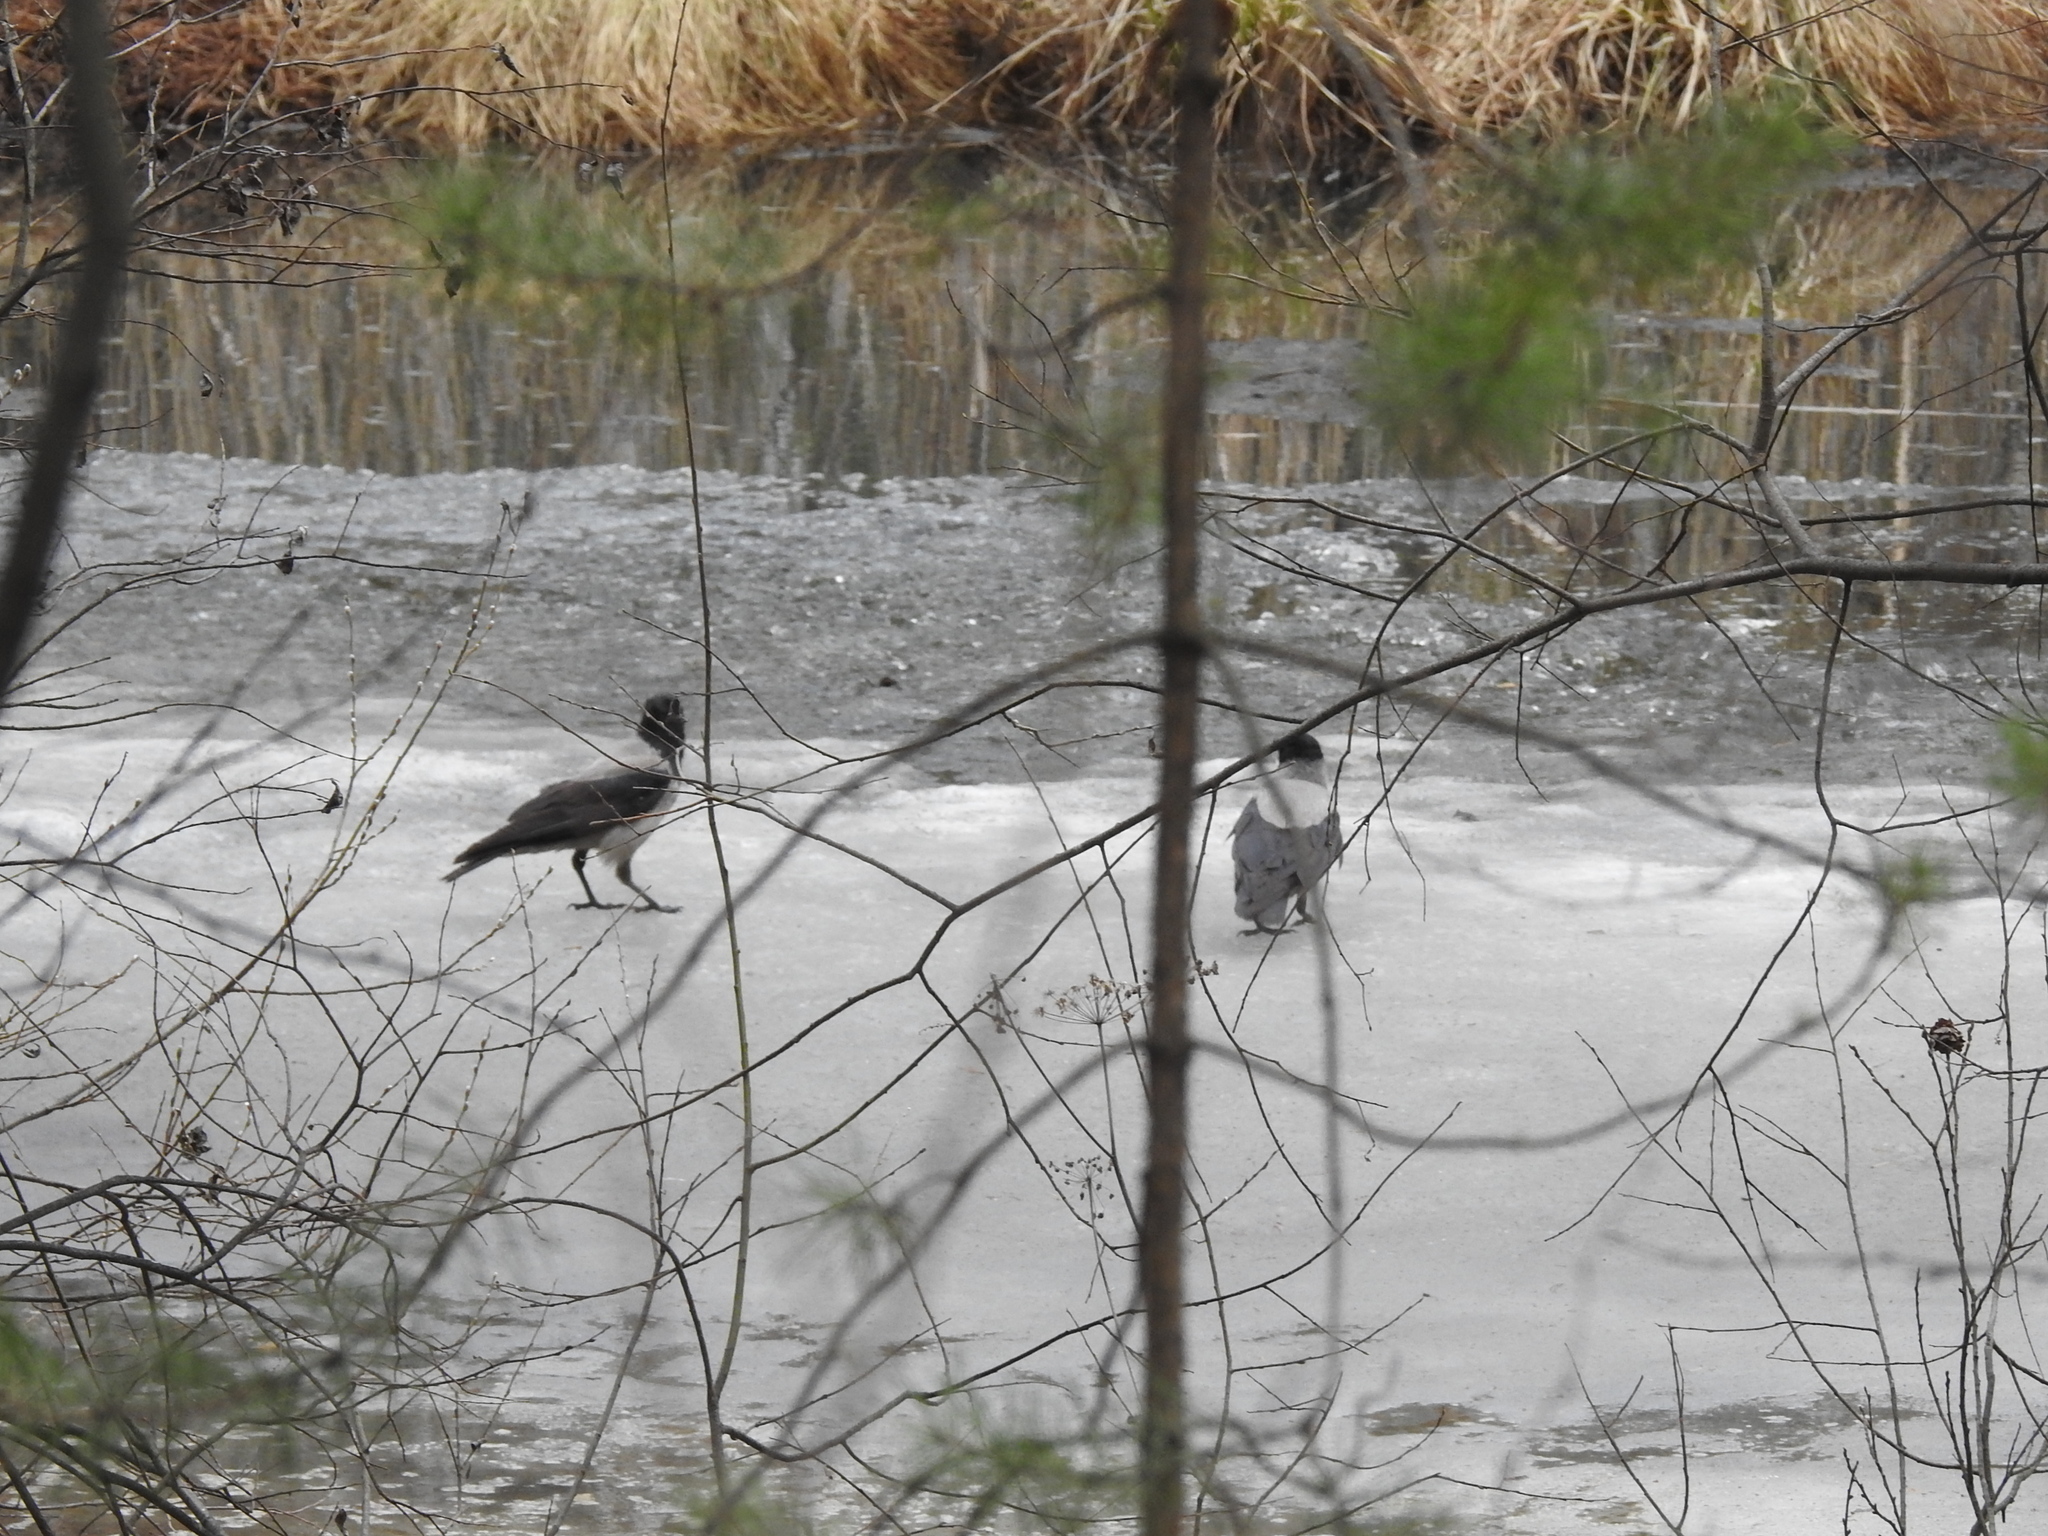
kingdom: Animalia
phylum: Chordata
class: Aves
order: Passeriformes
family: Corvidae
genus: Corvus
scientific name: Corvus cornix
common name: Hooded crow
